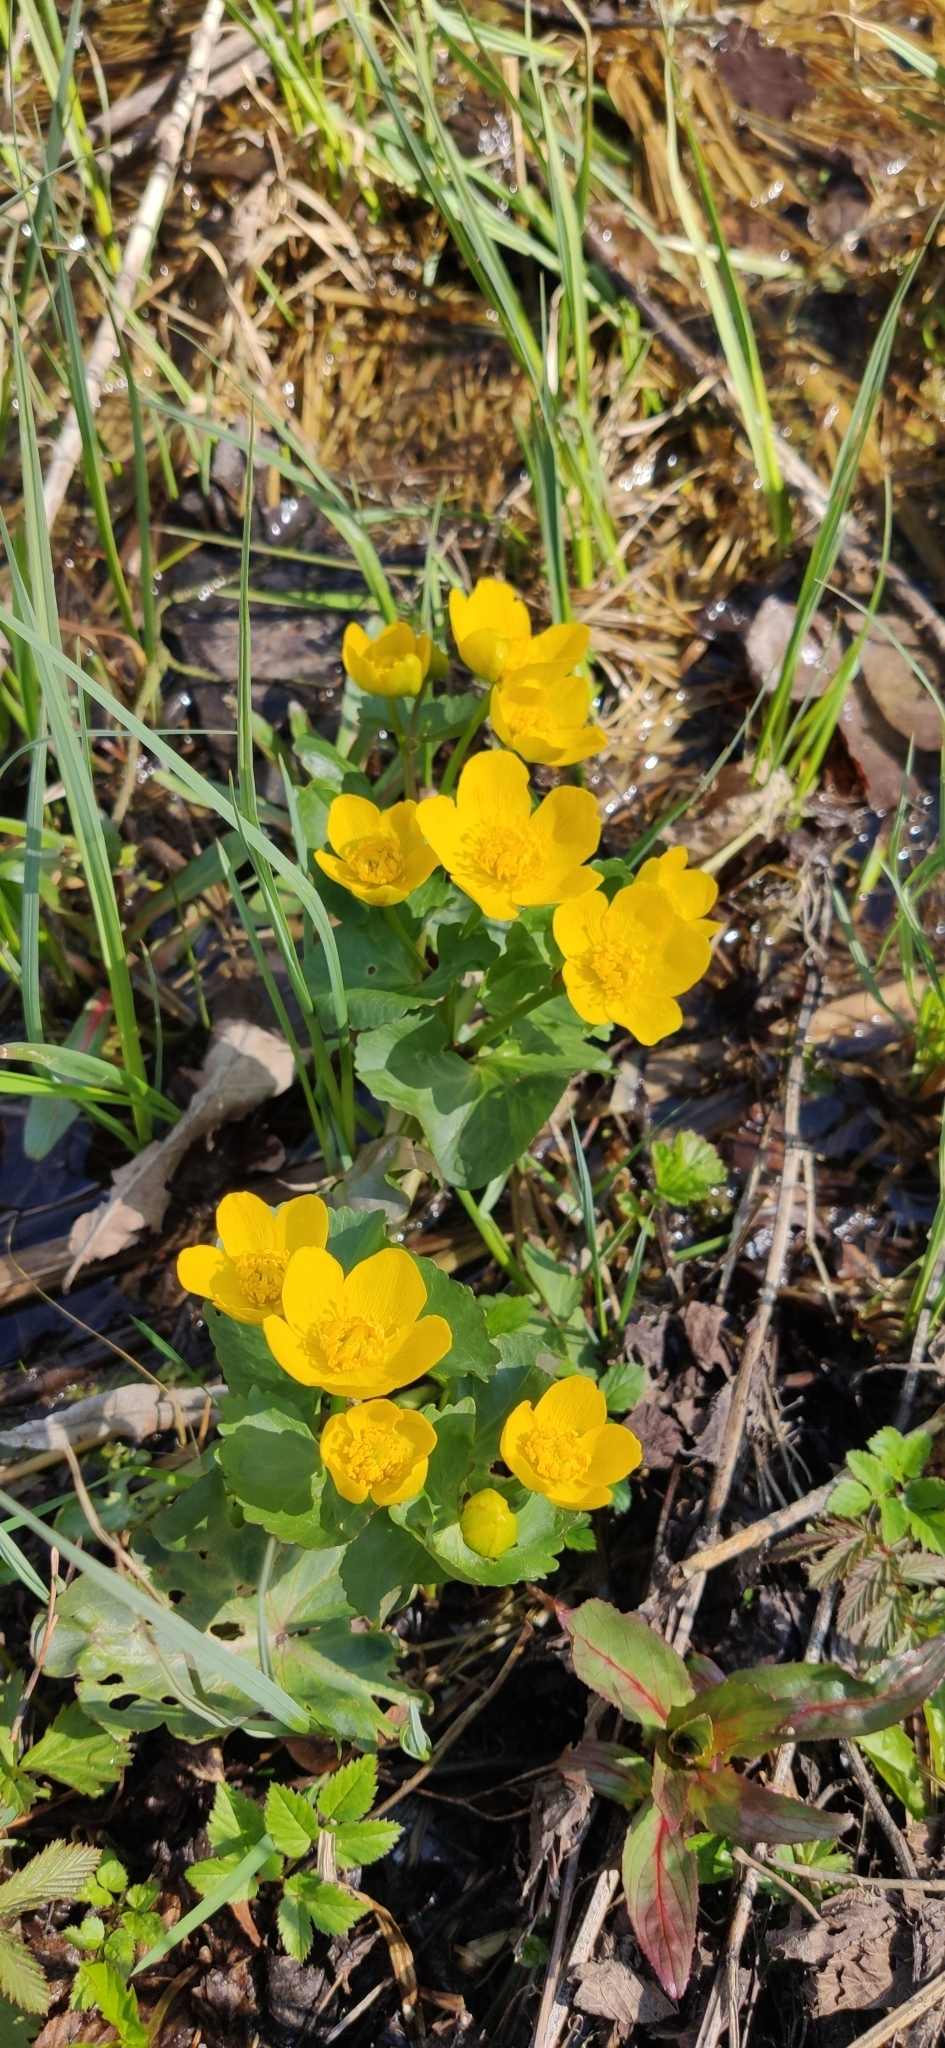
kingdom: Plantae
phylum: Tracheophyta
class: Magnoliopsida
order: Ranunculales
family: Ranunculaceae
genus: Caltha
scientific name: Caltha palustris
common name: Marsh marigold
